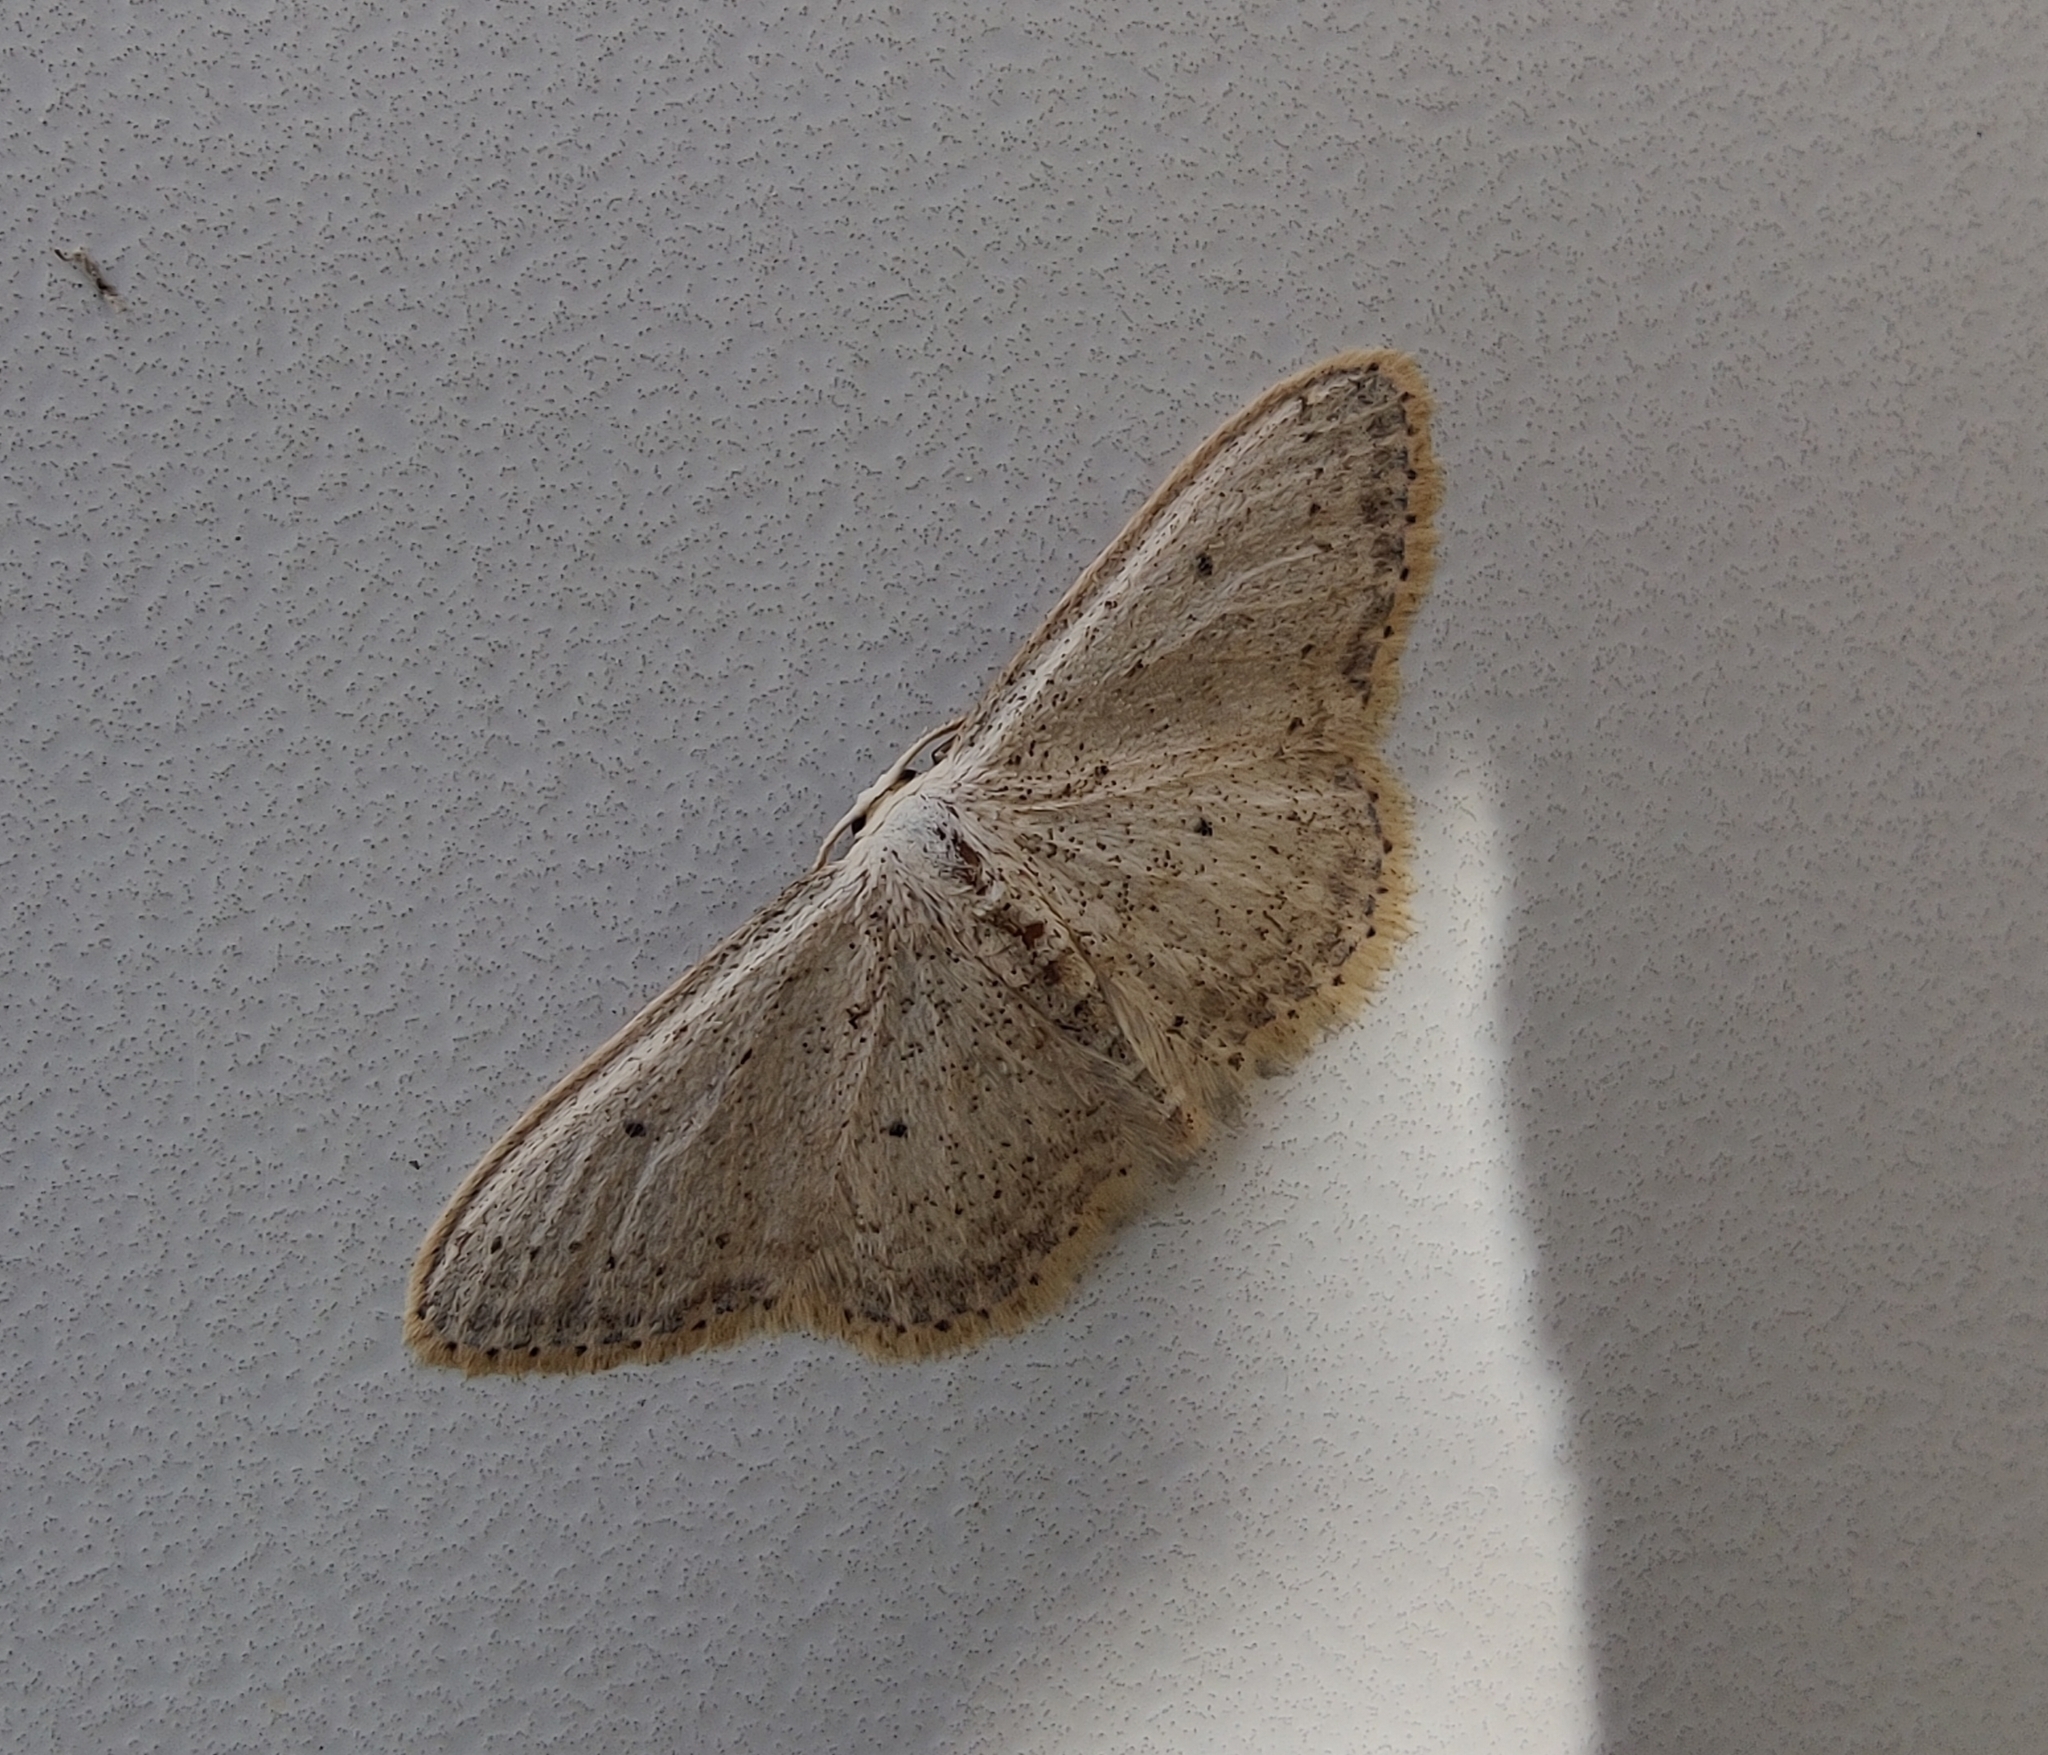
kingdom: Animalia
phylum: Arthropoda
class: Insecta
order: Lepidoptera
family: Geometridae
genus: Idaea
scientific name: Idaea seriata
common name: Small dusty wave
